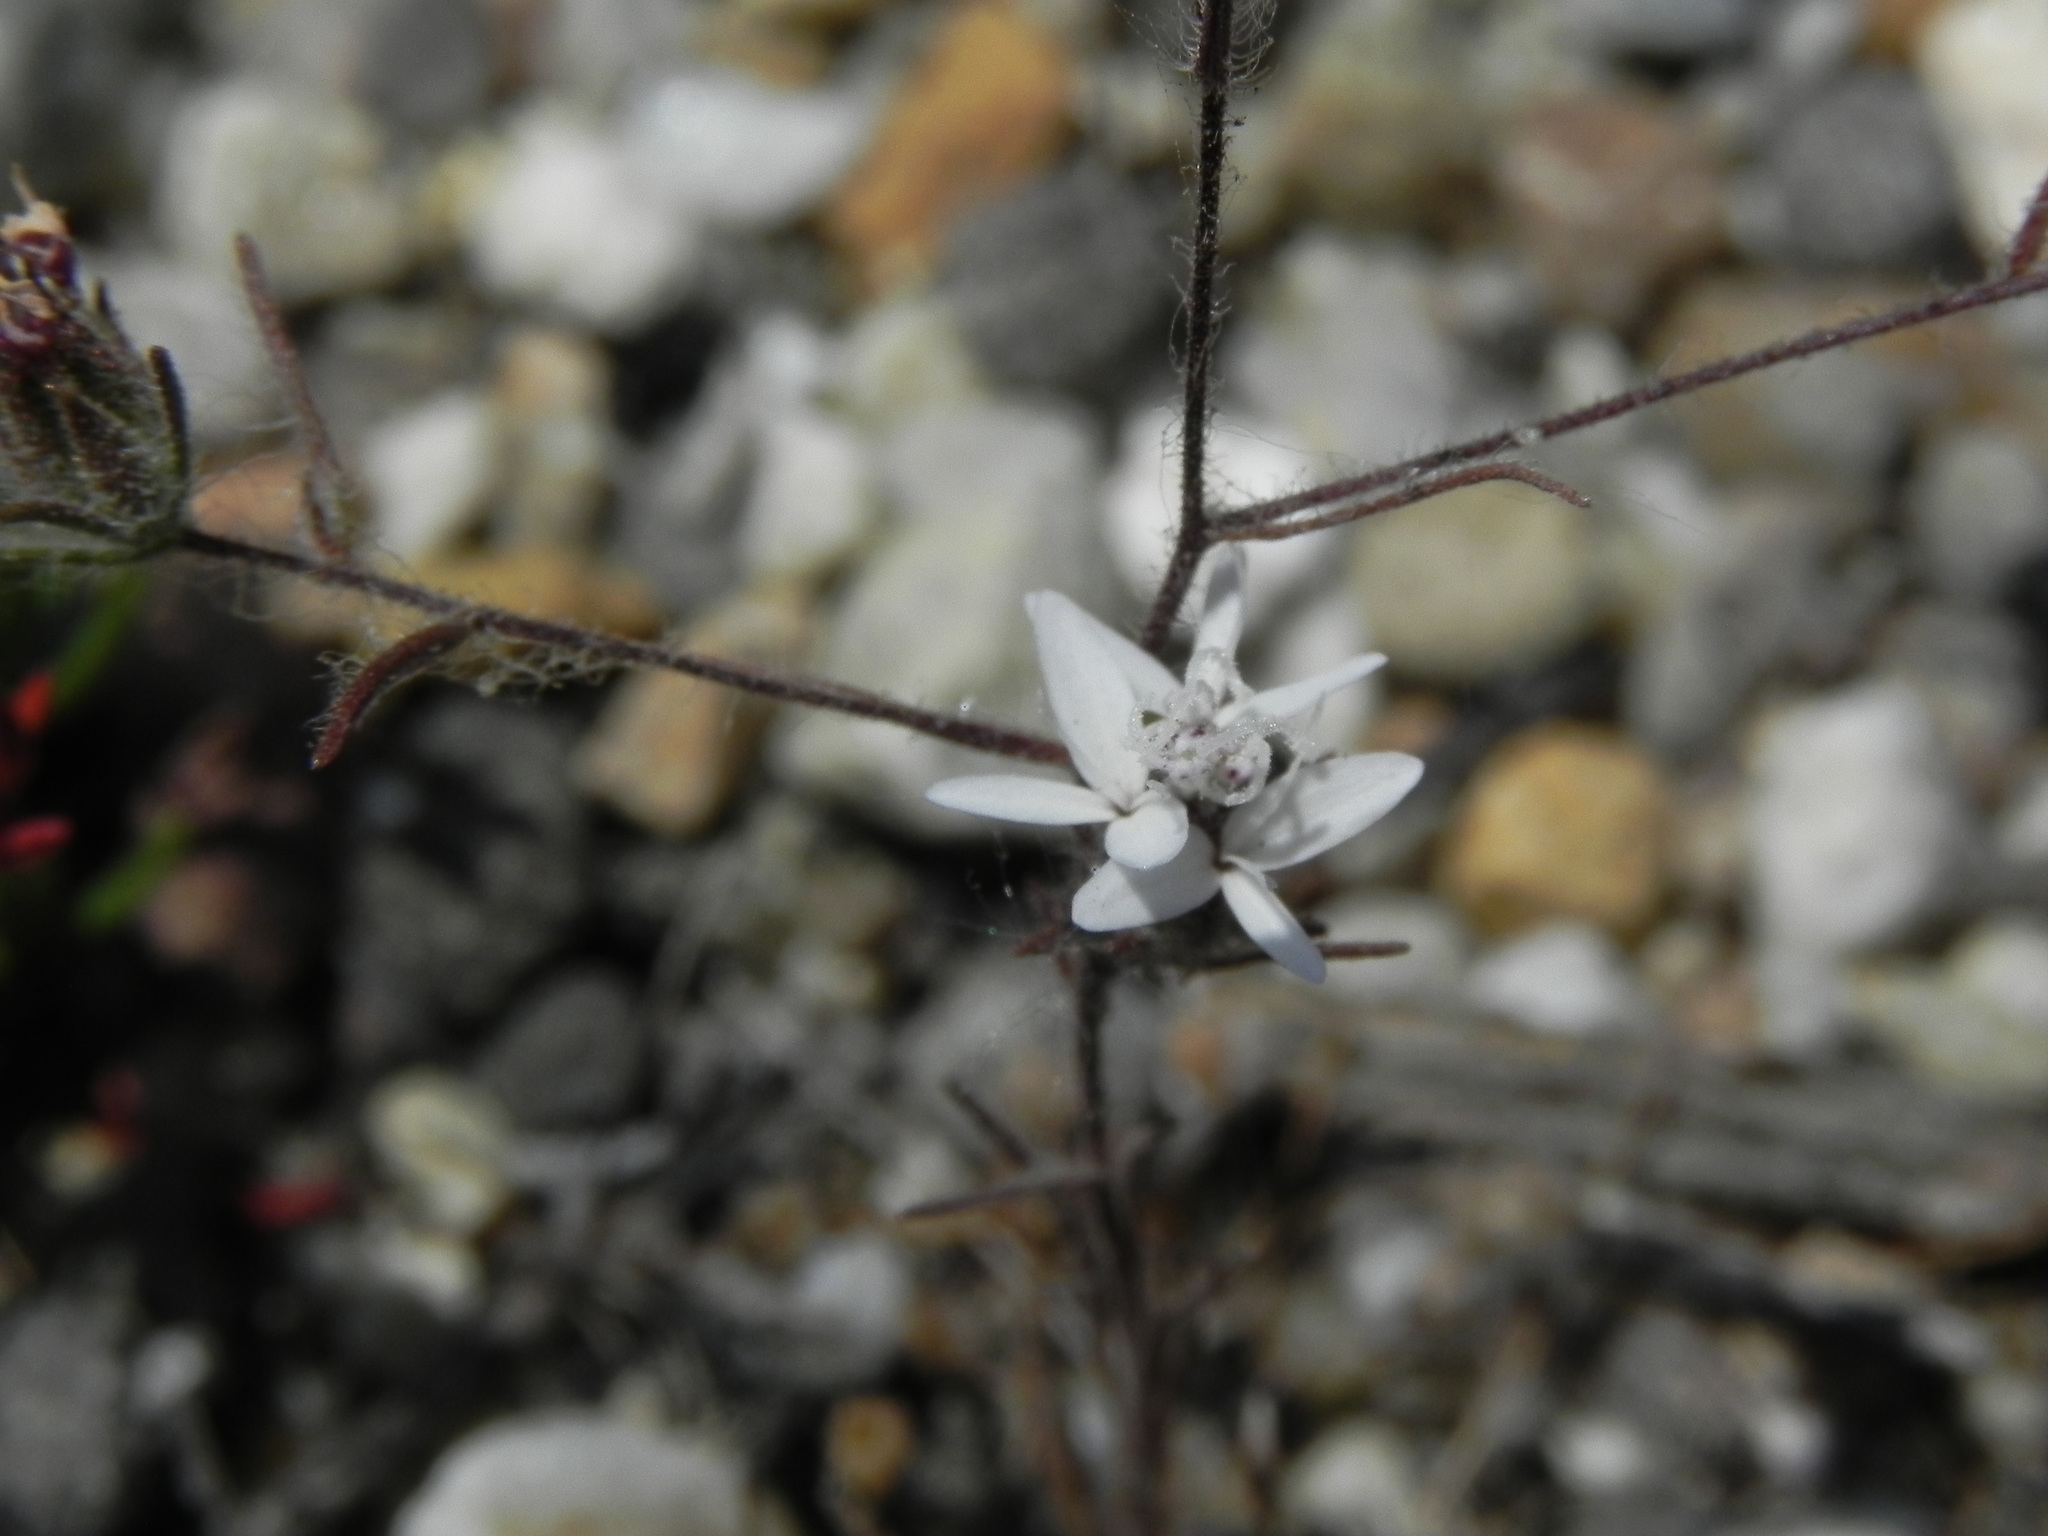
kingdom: Plantae
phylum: Tracheophyta
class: Magnoliopsida
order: Asterales
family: Asteraceae
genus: Osmadenia
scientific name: Osmadenia tenella
